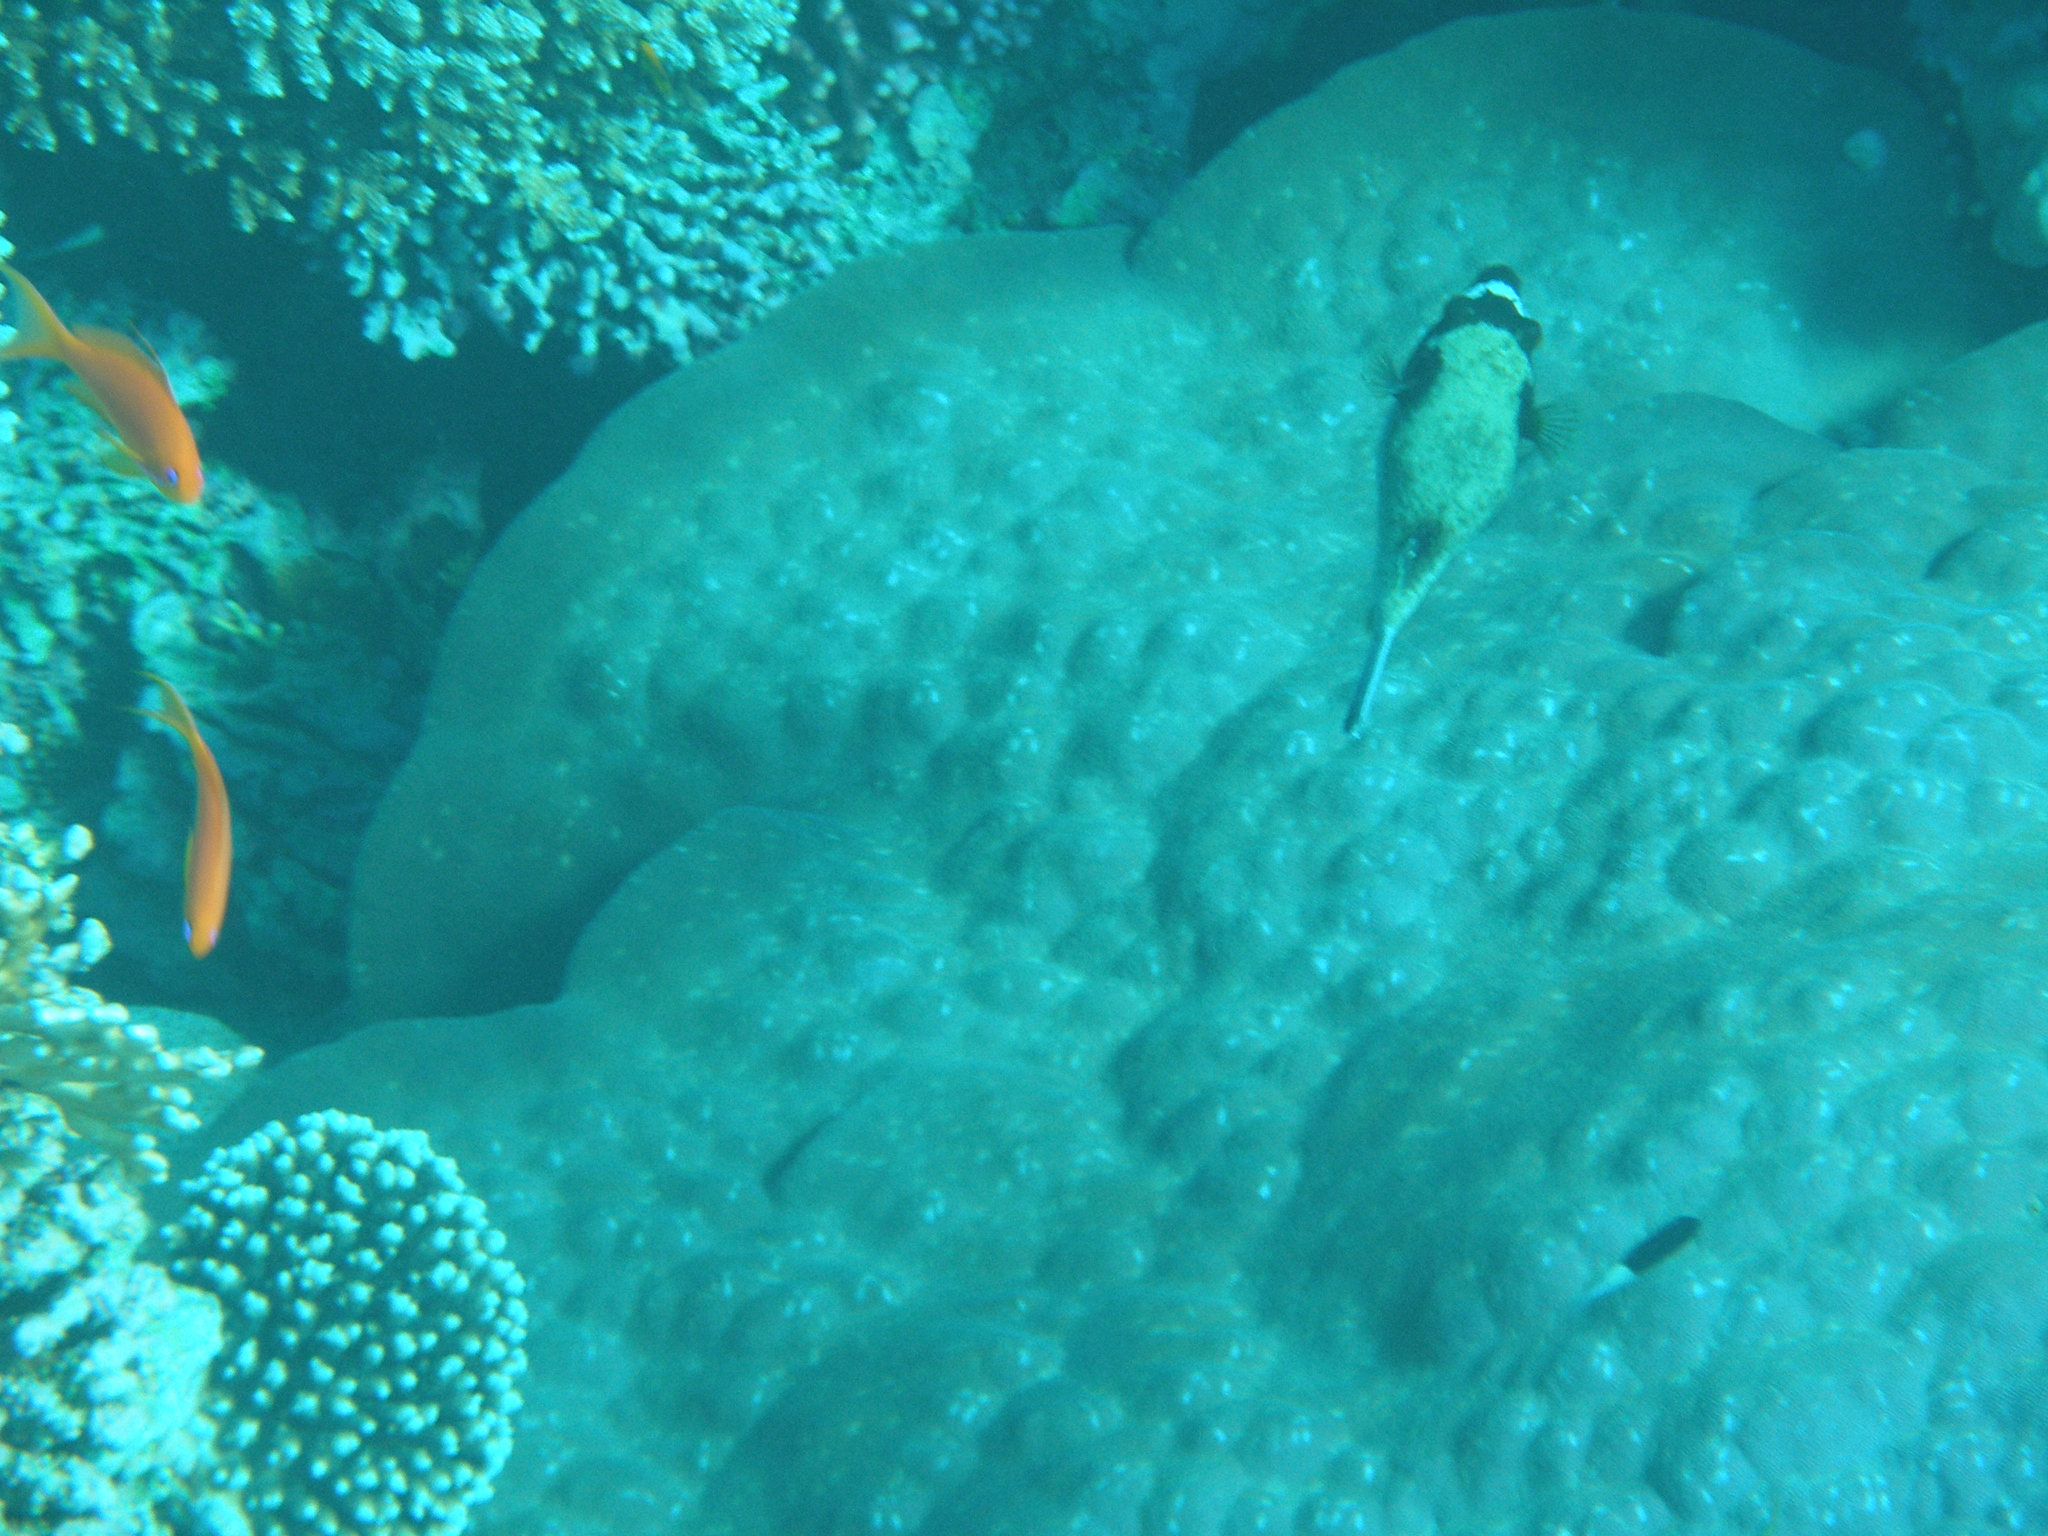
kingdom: Animalia
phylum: Chordata
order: Tetraodontiformes
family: Tetraodontidae
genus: Arothron
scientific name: Arothron diadematus
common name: Masked puffer
